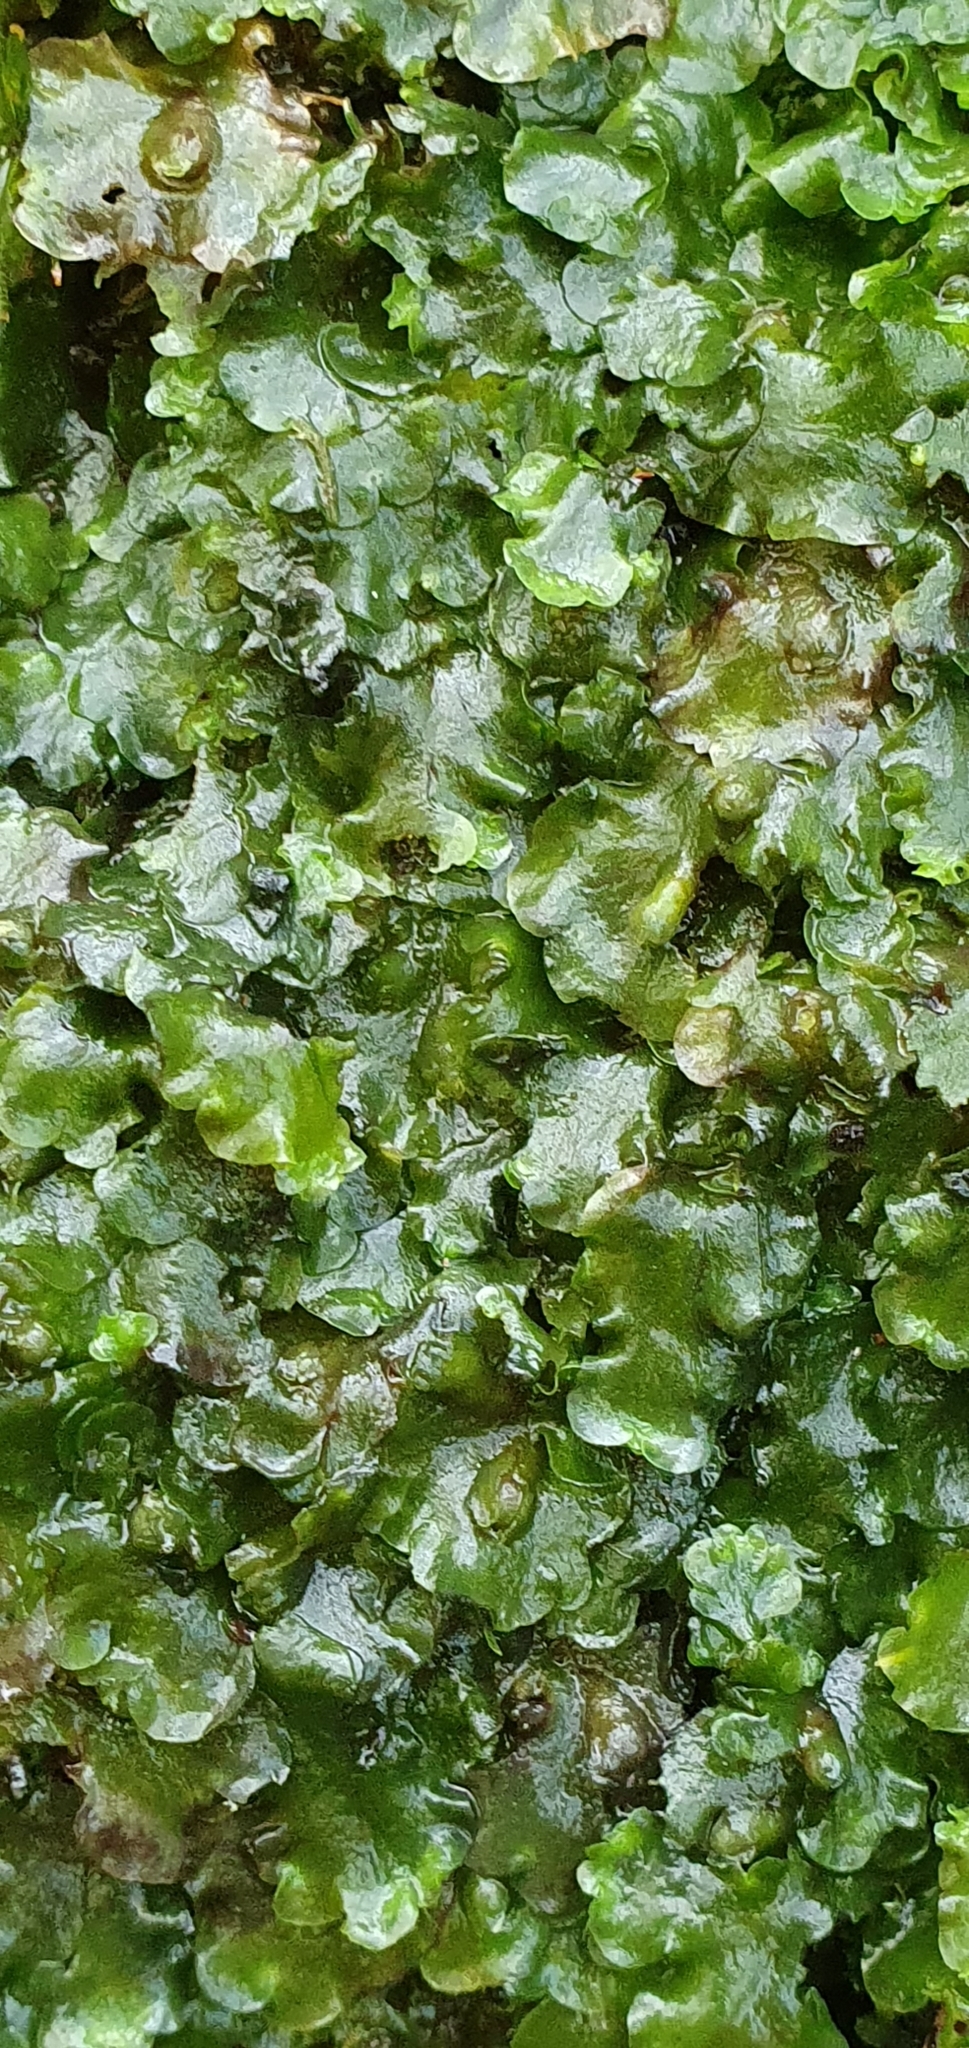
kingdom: Plantae
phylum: Marchantiophyta
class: Jungermanniopsida
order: Pelliales
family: Pelliaceae
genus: Pellia
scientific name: Pellia epiphylla
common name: Common pellia
